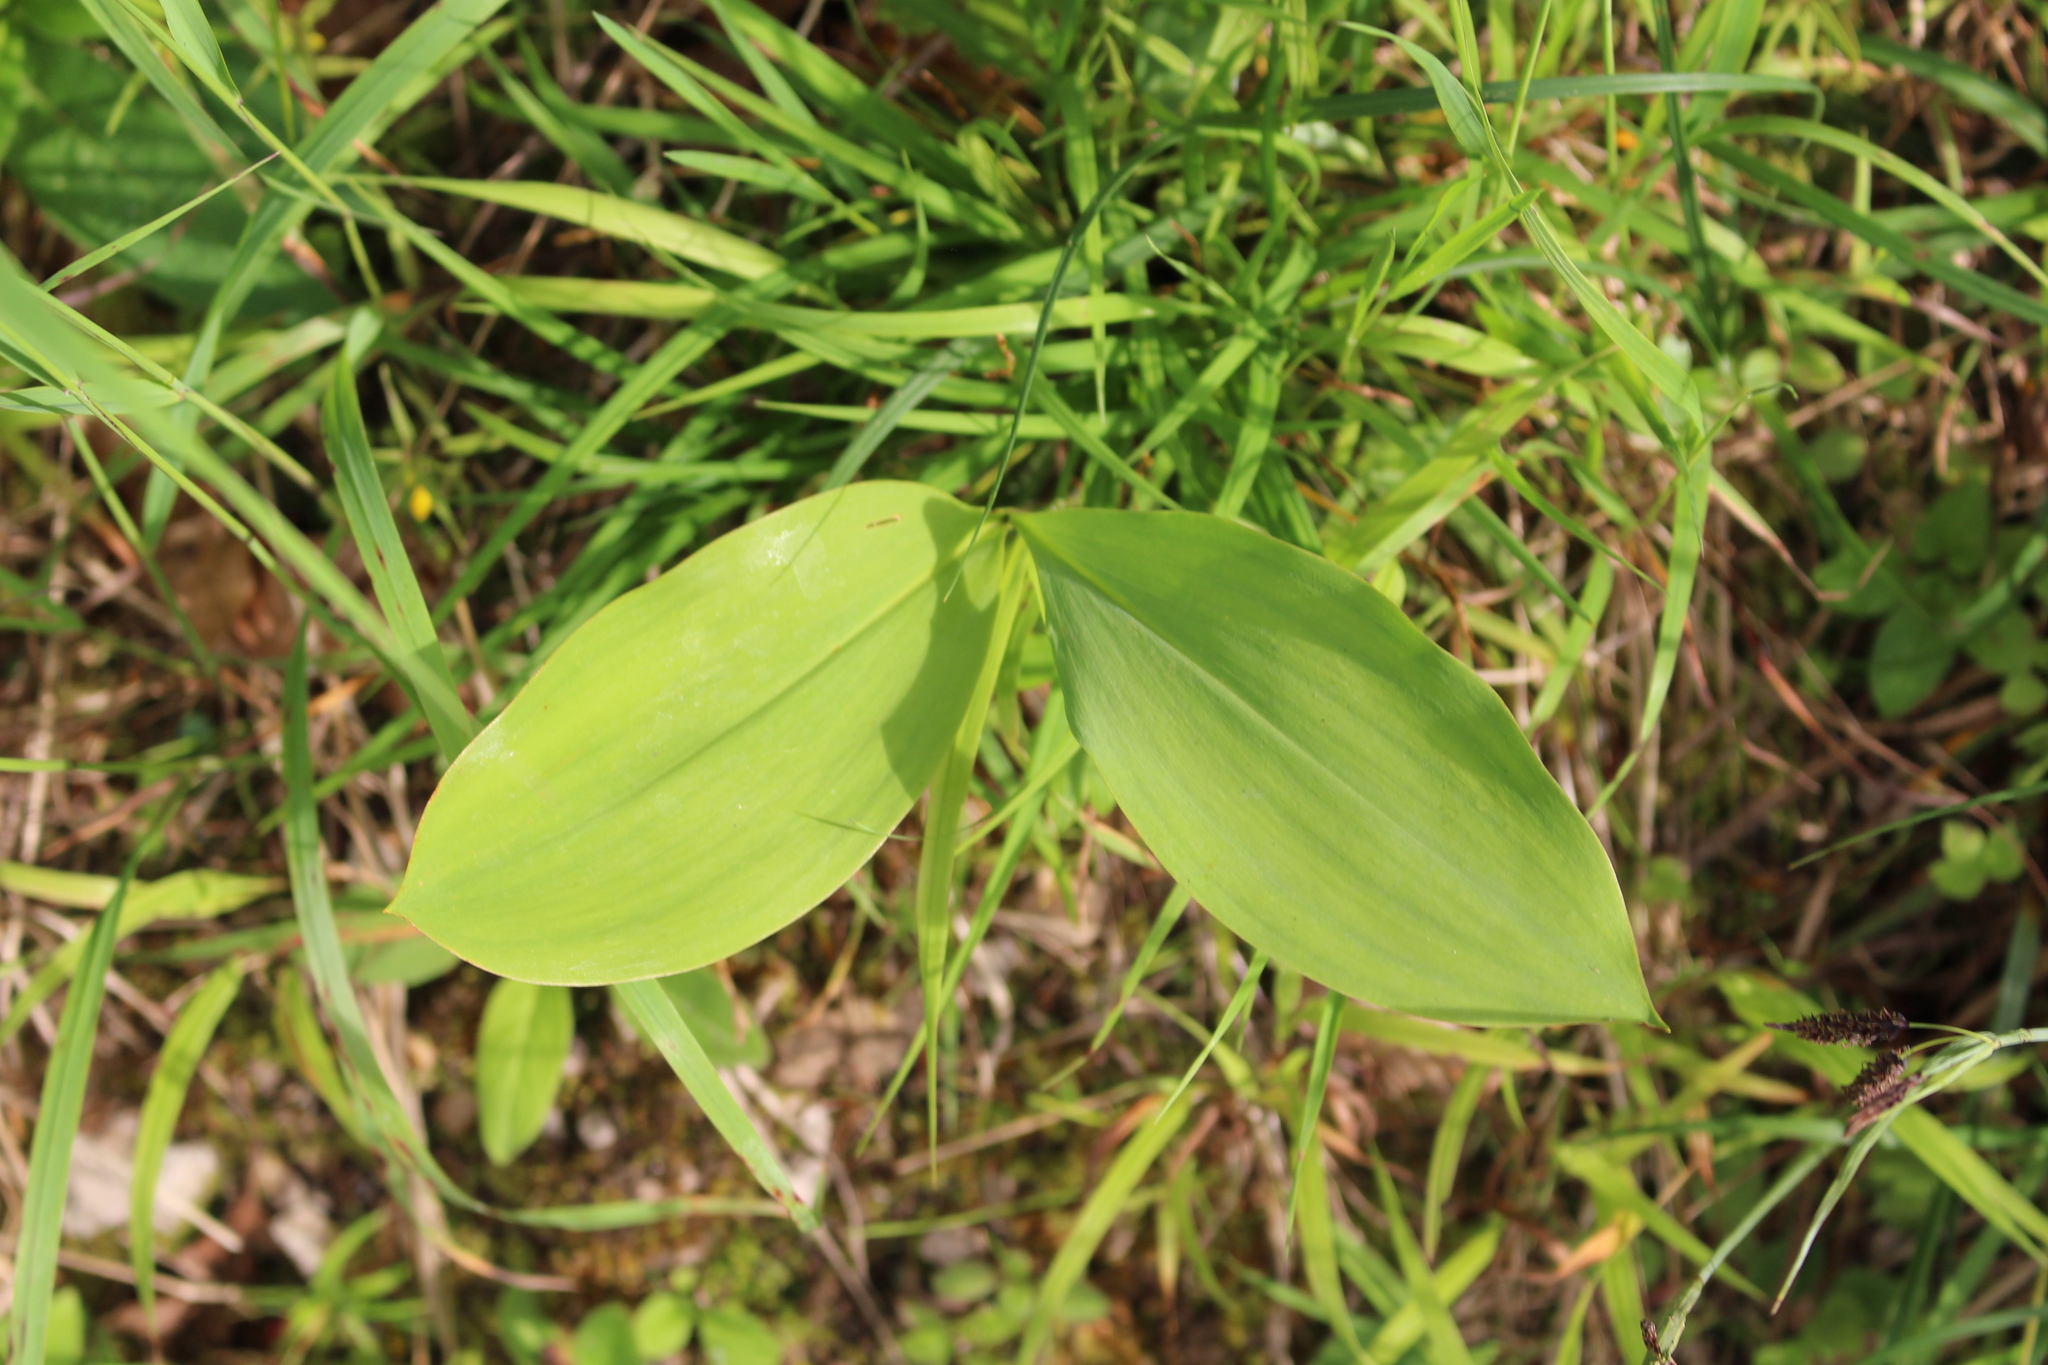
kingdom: Plantae
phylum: Tracheophyta
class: Liliopsida
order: Asparagales
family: Asparagaceae
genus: Convallaria
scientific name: Convallaria majalis
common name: Lily-of-the-valley
